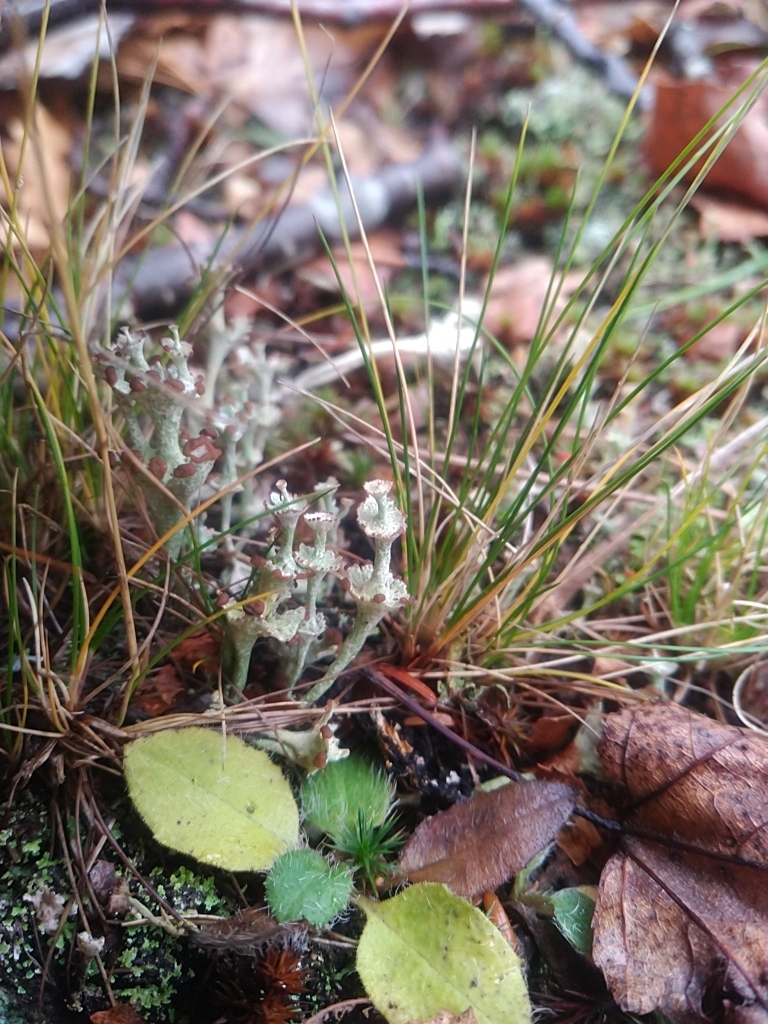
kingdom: Fungi
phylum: Ascomycota
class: Lecanoromycetes
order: Lecanorales
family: Cladoniaceae
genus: Cladonia
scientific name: Cladonia cervicornis
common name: Browned pixie-cup lichen
